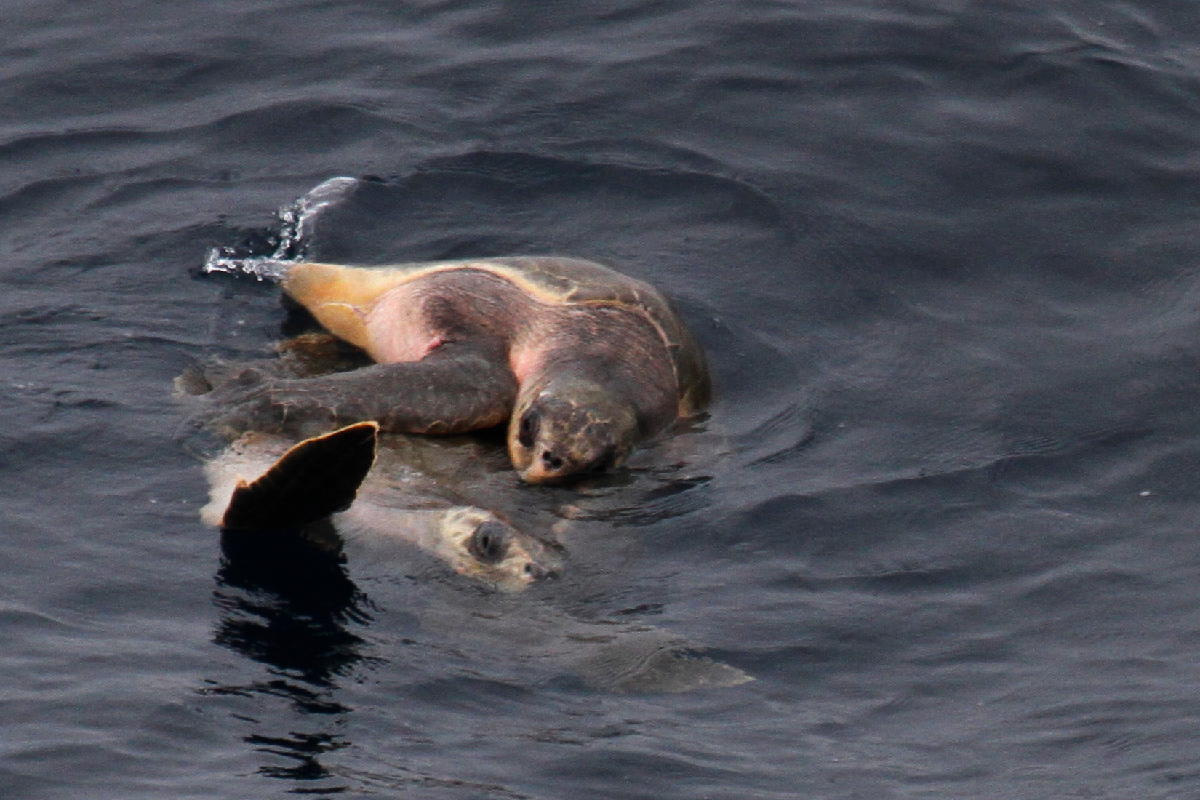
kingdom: Animalia
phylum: Chordata
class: Testudines
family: Cheloniidae
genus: Lepidochelys
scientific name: Lepidochelys olivacea
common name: Olive ridley
